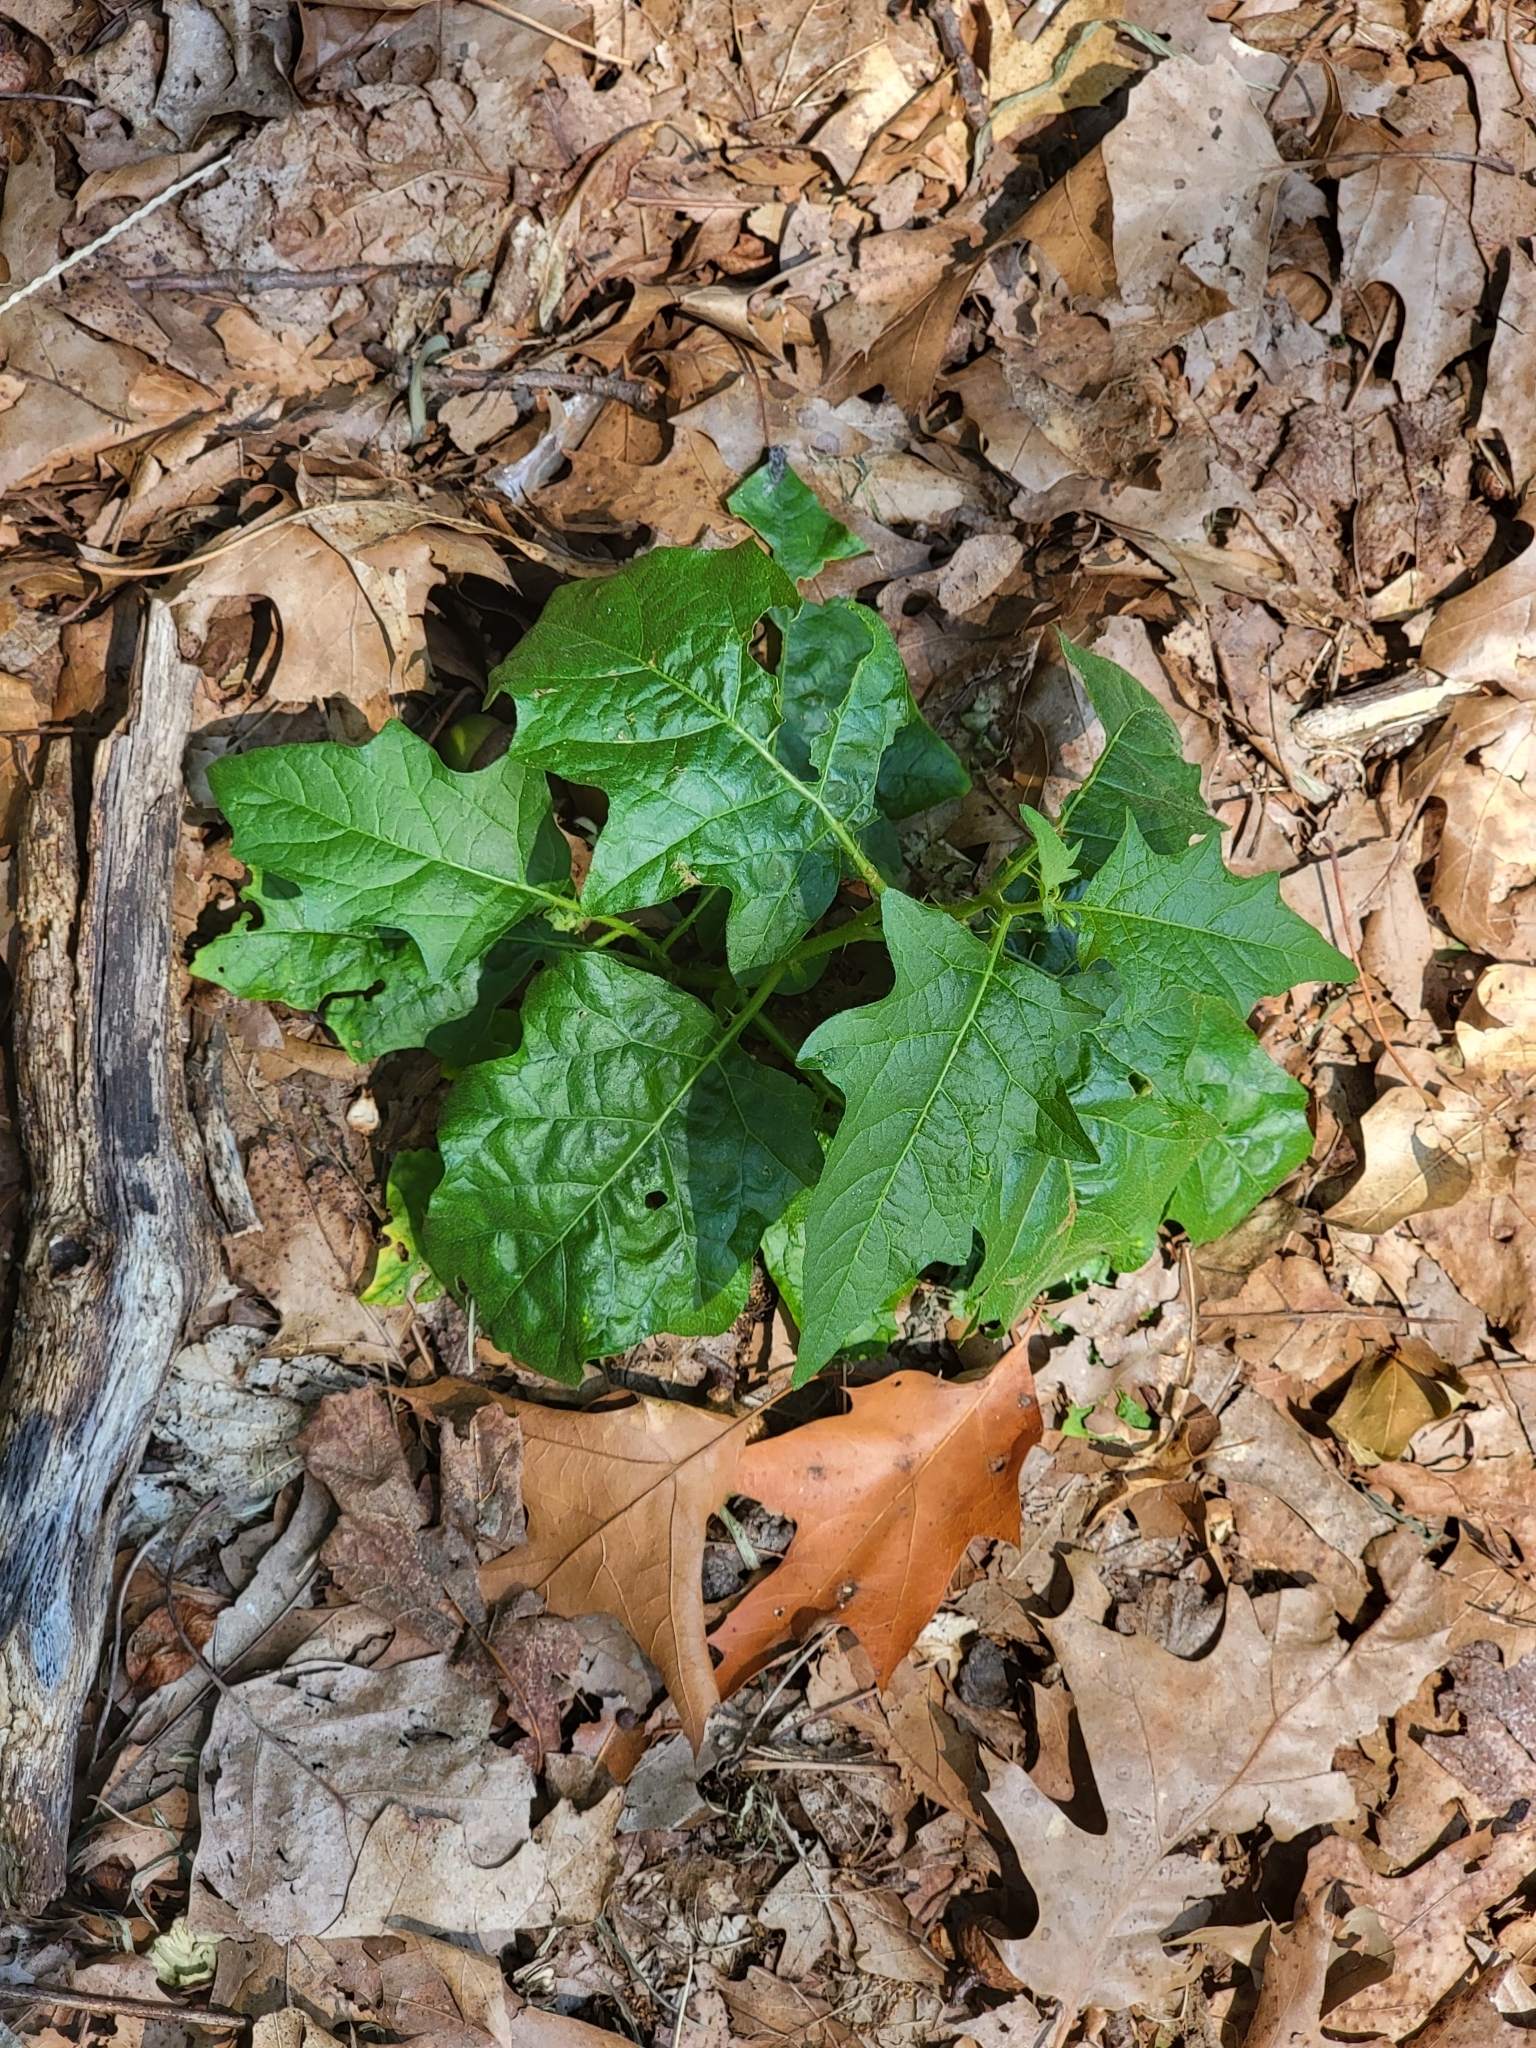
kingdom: Plantae
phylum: Tracheophyta
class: Magnoliopsida
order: Solanales
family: Solanaceae
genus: Solanum
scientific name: Solanum carolinense
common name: Horse-nettle
